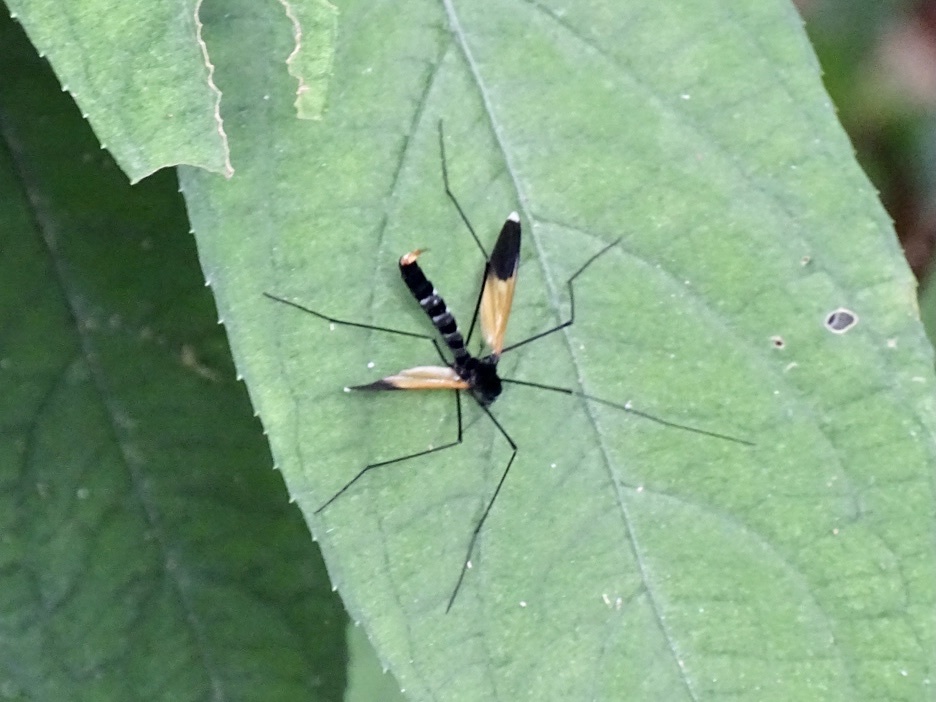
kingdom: Animalia
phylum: Arthropoda
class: Insecta
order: Diptera
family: Limoniidae
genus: Hexatoma
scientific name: Hexatoma chrysomela
